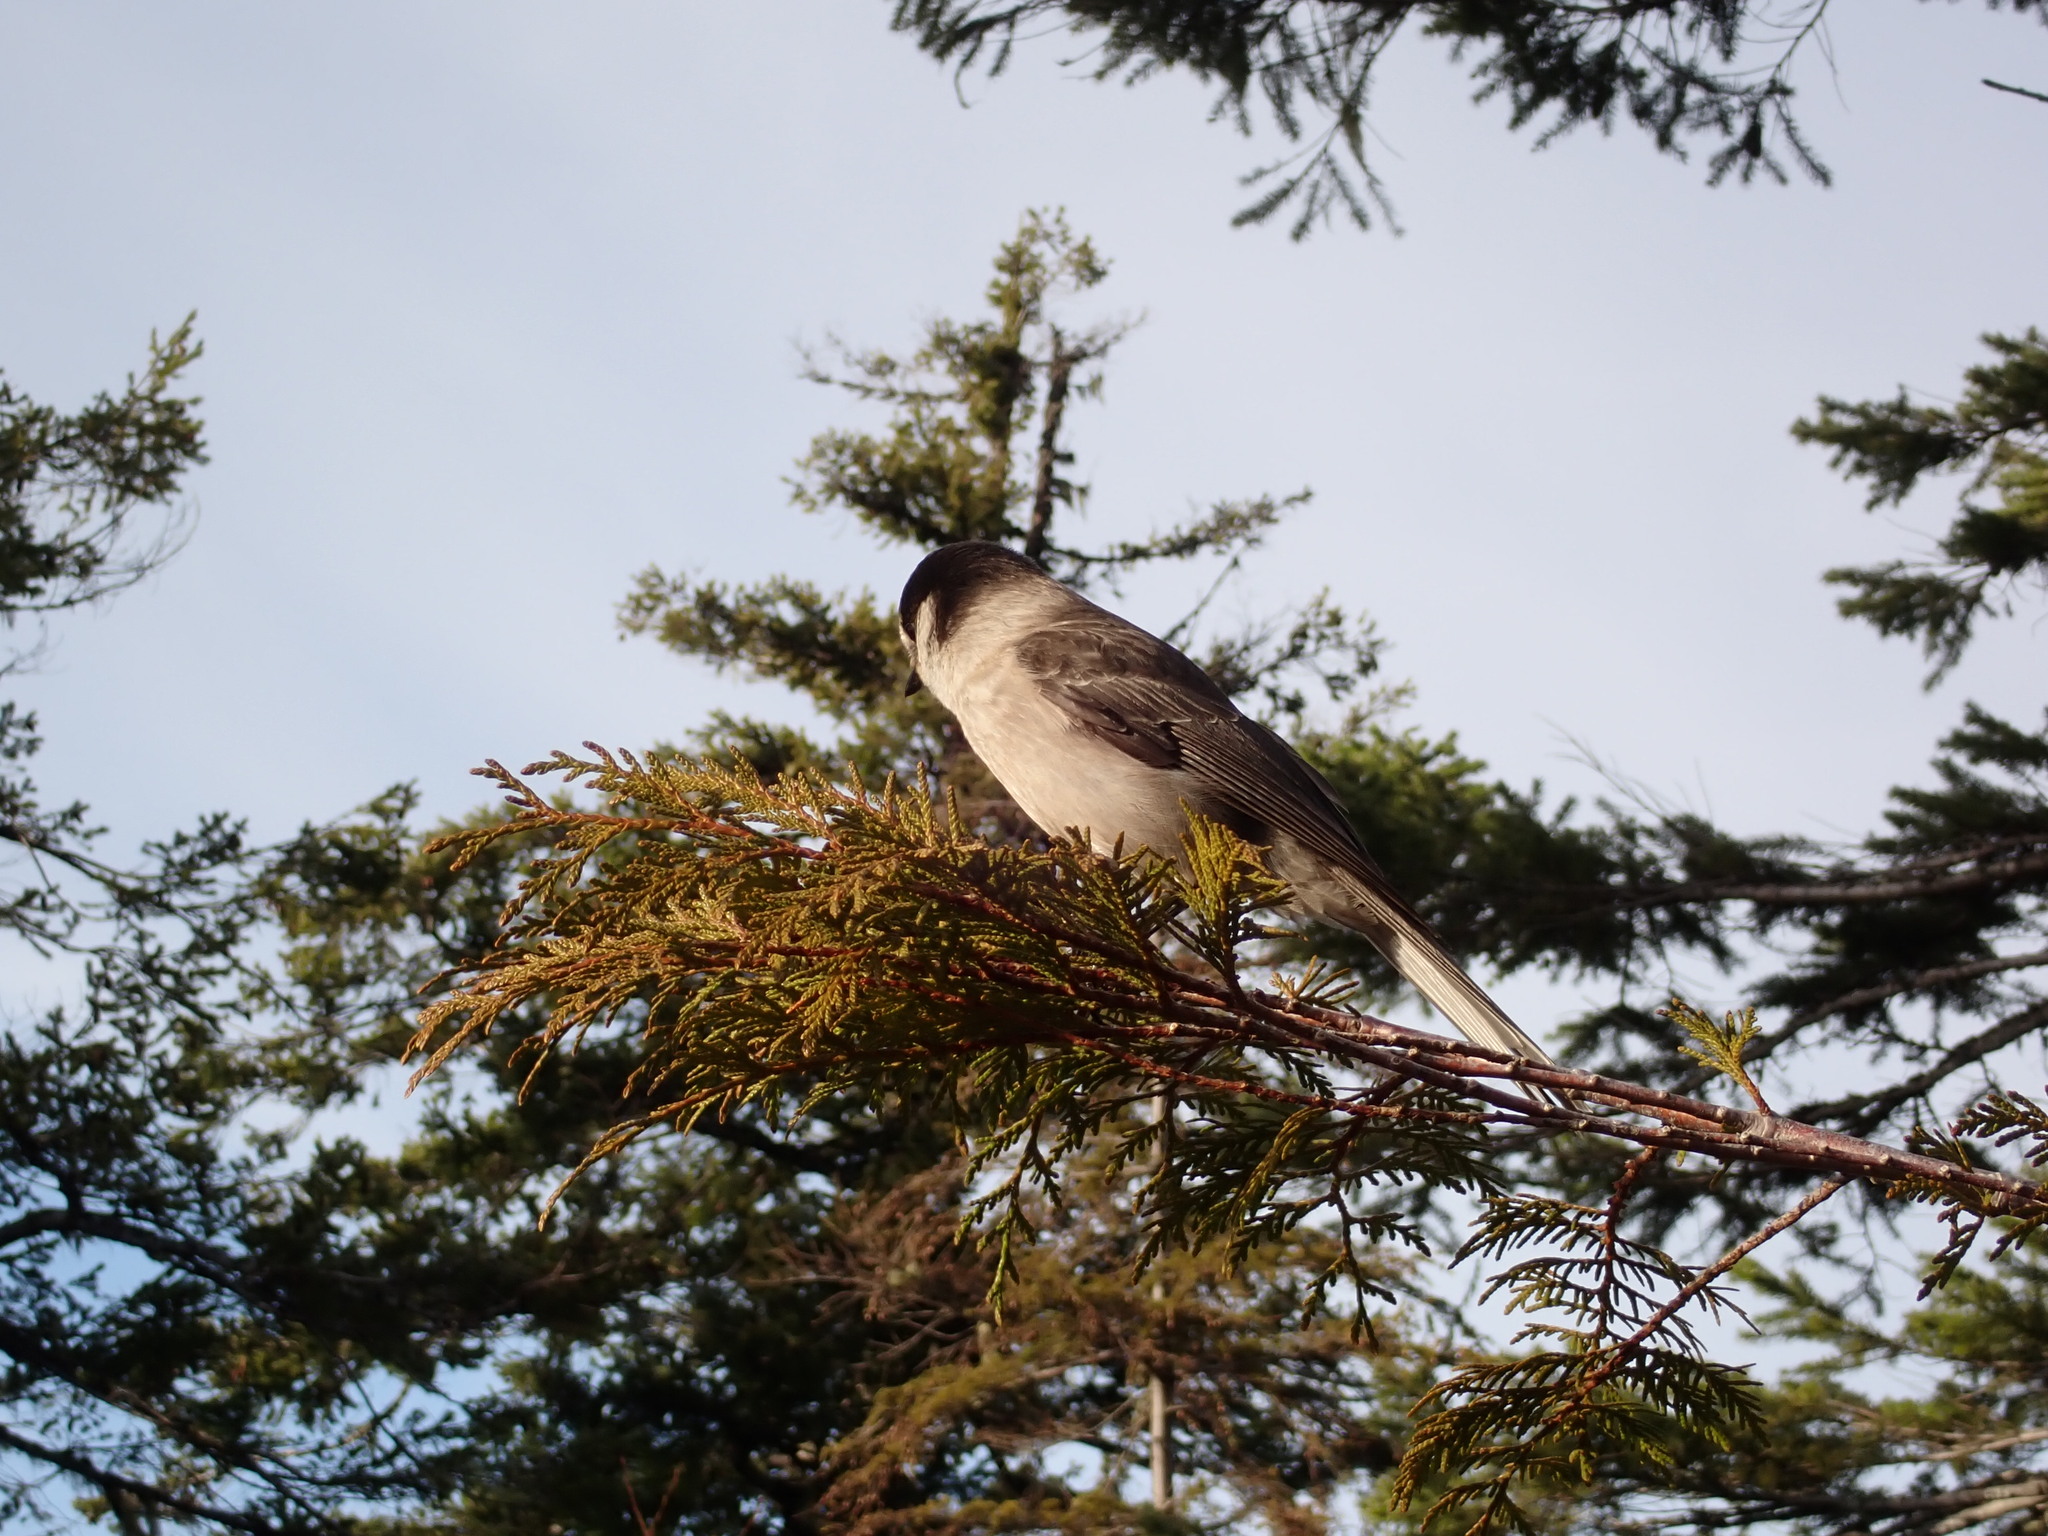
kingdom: Animalia
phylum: Chordata
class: Aves
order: Passeriformes
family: Corvidae
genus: Perisoreus
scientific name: Perisoreus canadensis
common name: Gray jay
